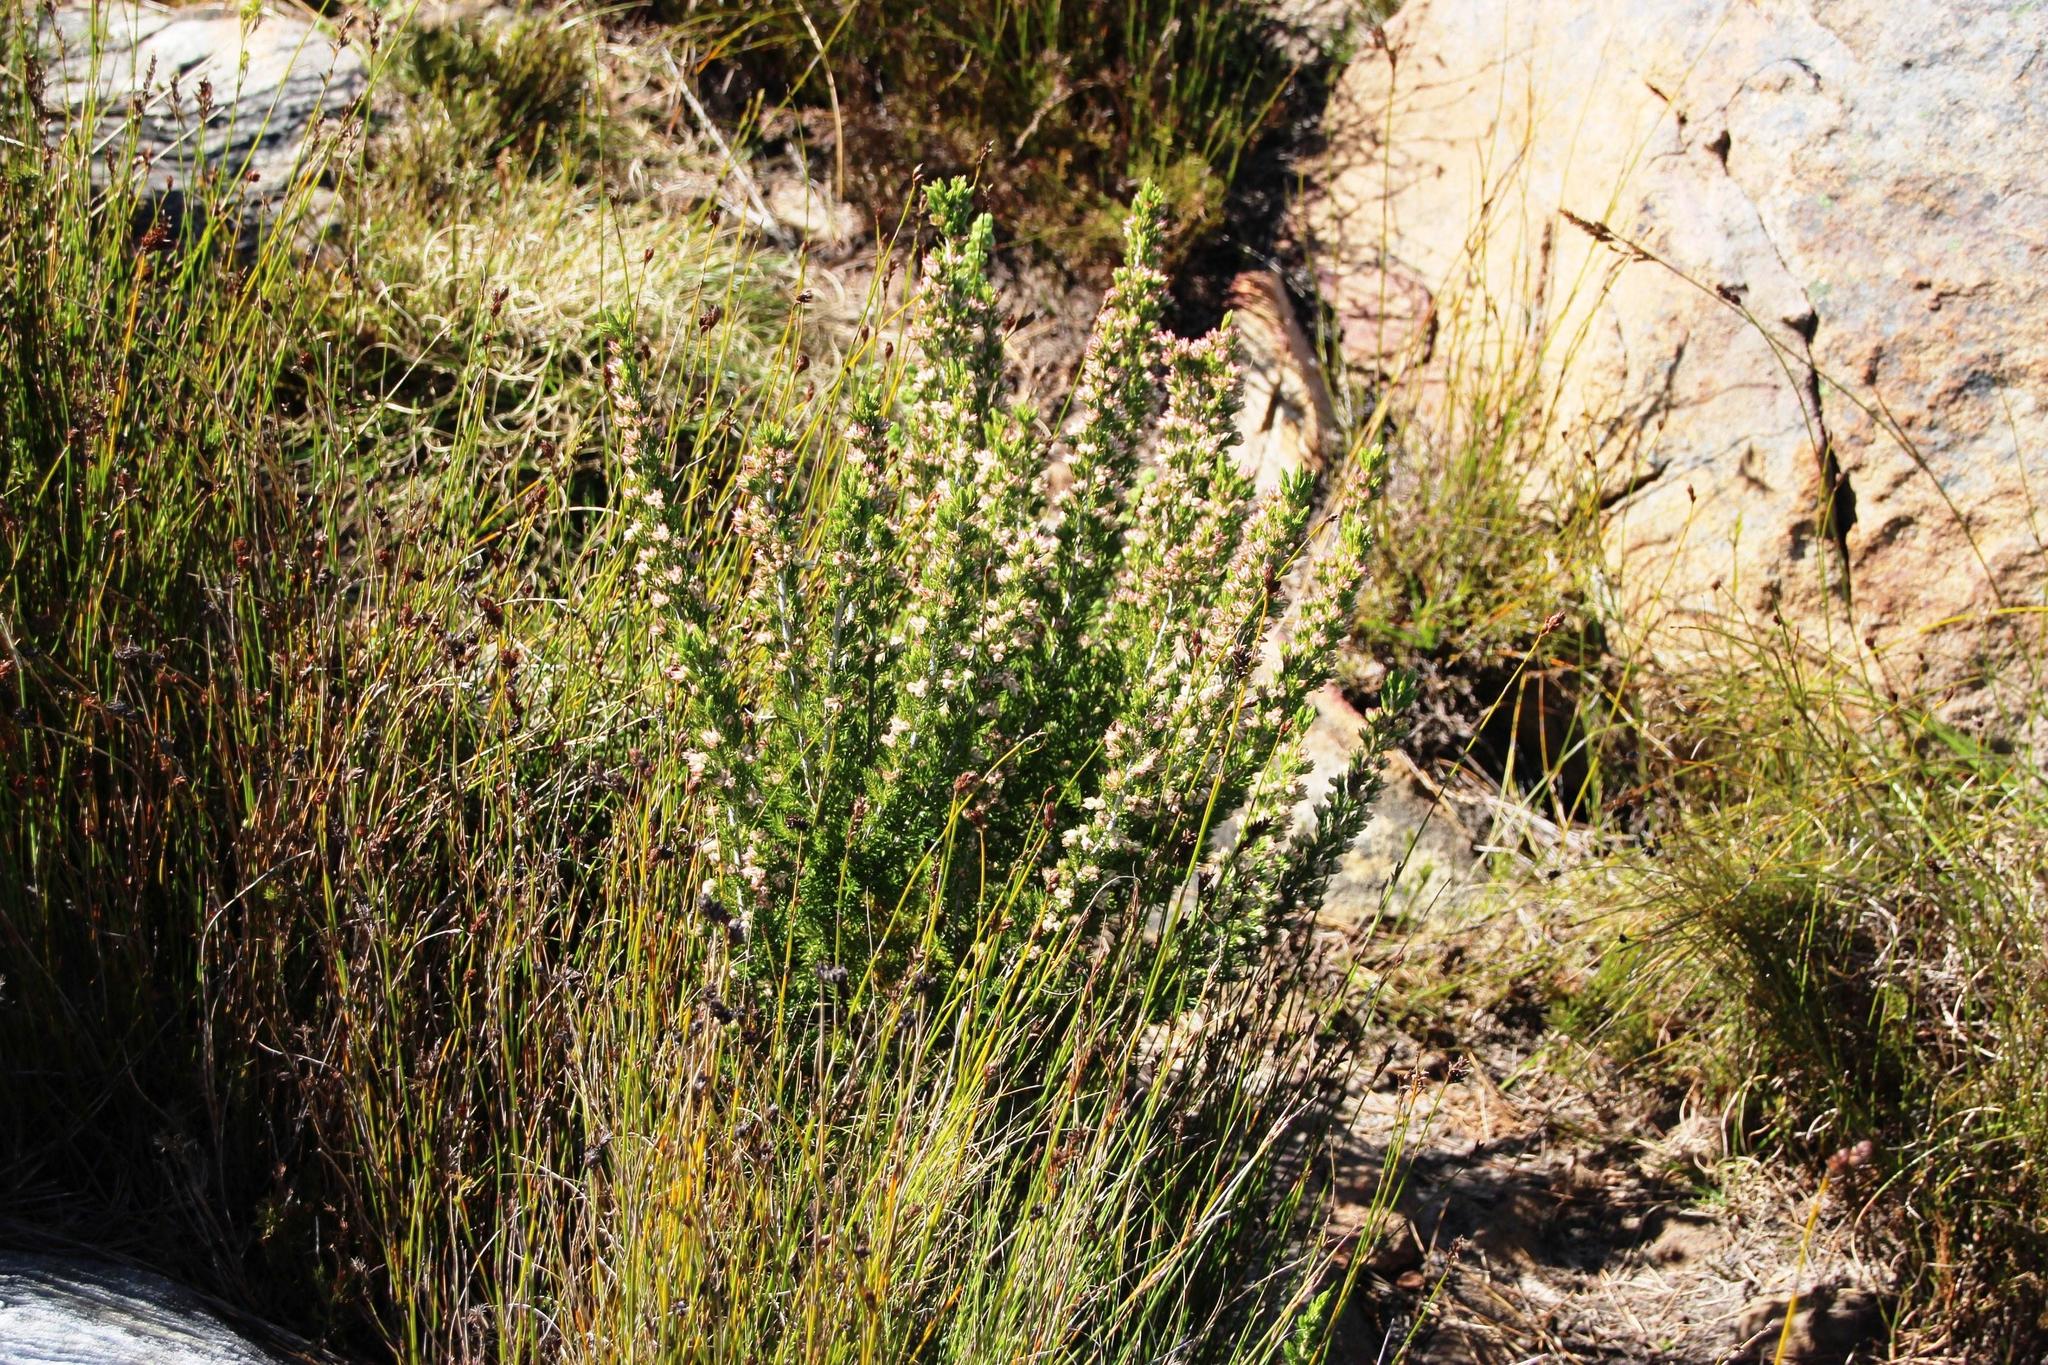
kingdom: Plantae
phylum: Tracheophyta
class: Magnoliopsida
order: Ericales
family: Ericaceae
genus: Erica
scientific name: Erica triflora
